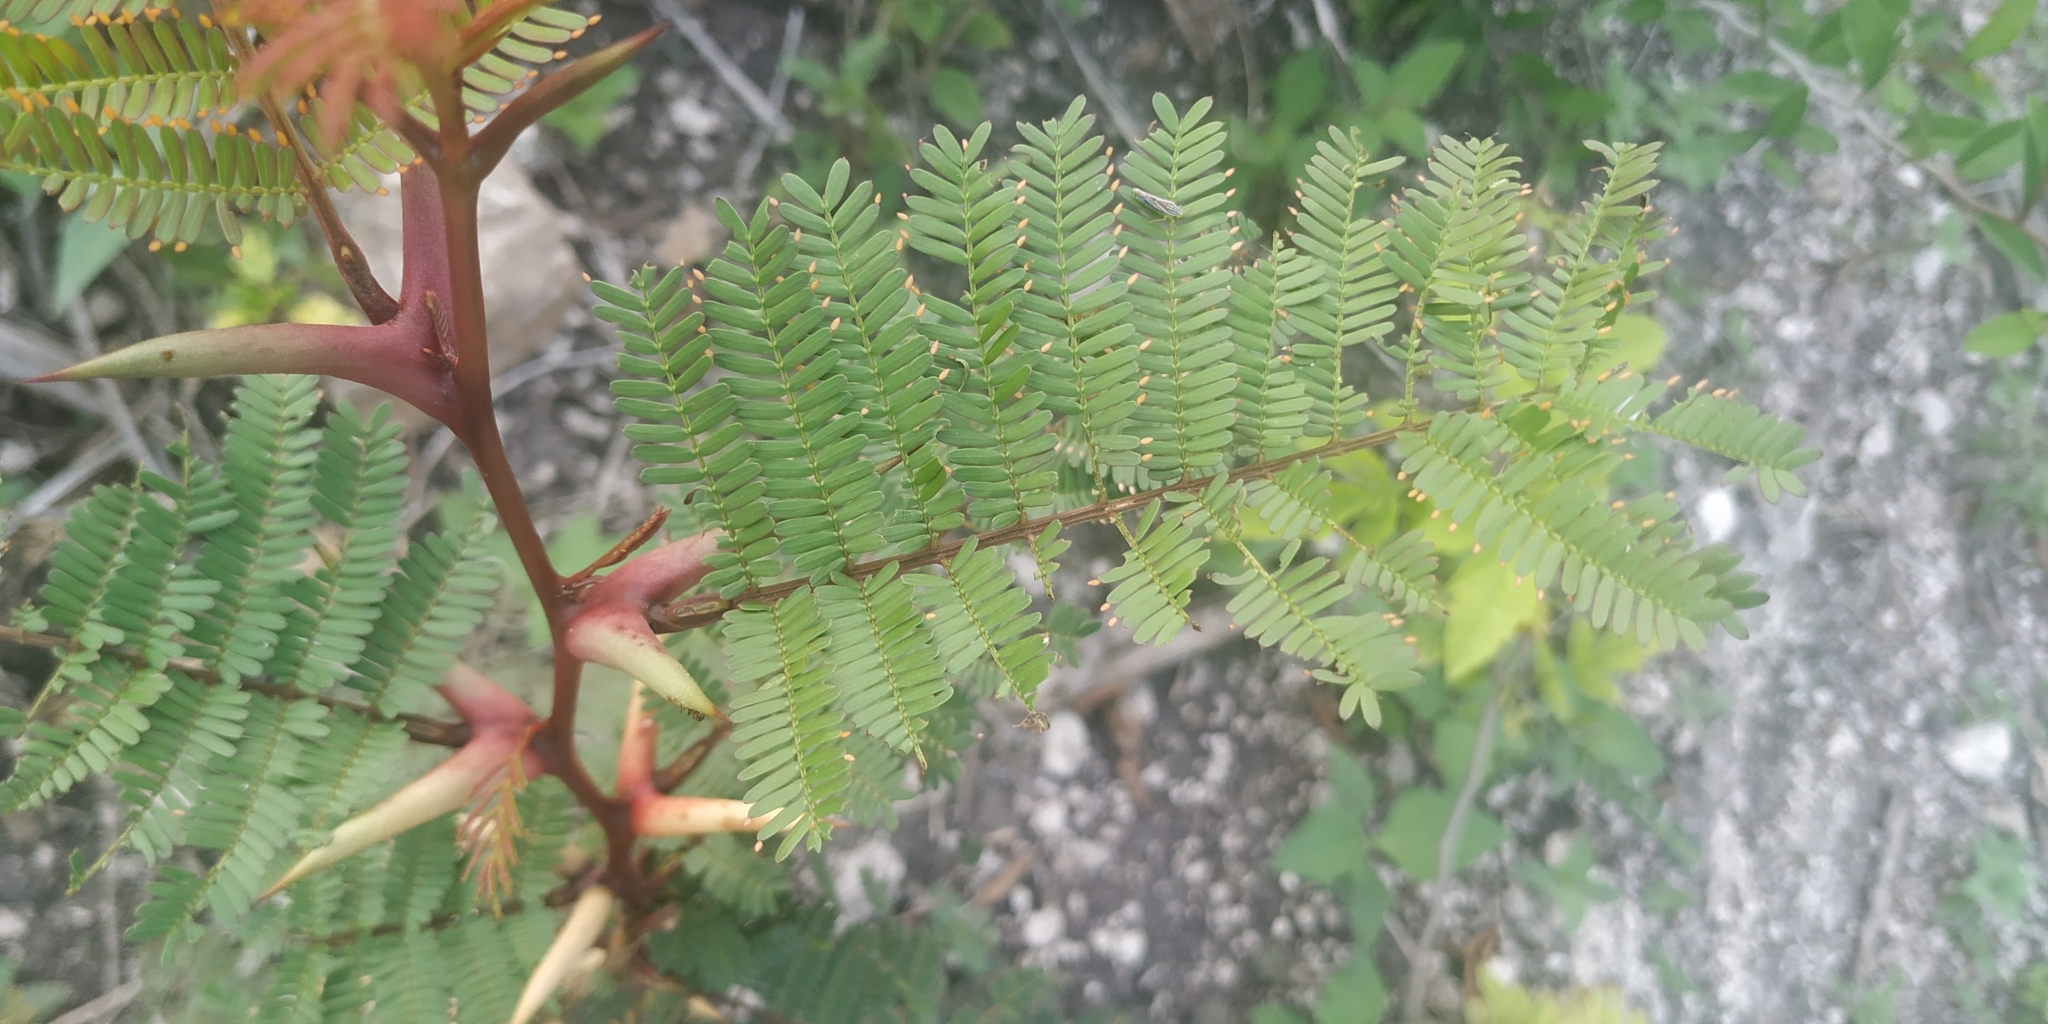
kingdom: Plantae
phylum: Tracheophyta
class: Magnoliopsida
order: Fabales
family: Fabaceae
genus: Vachellia
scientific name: Vachellia cornigera
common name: Bullhorn wattle
